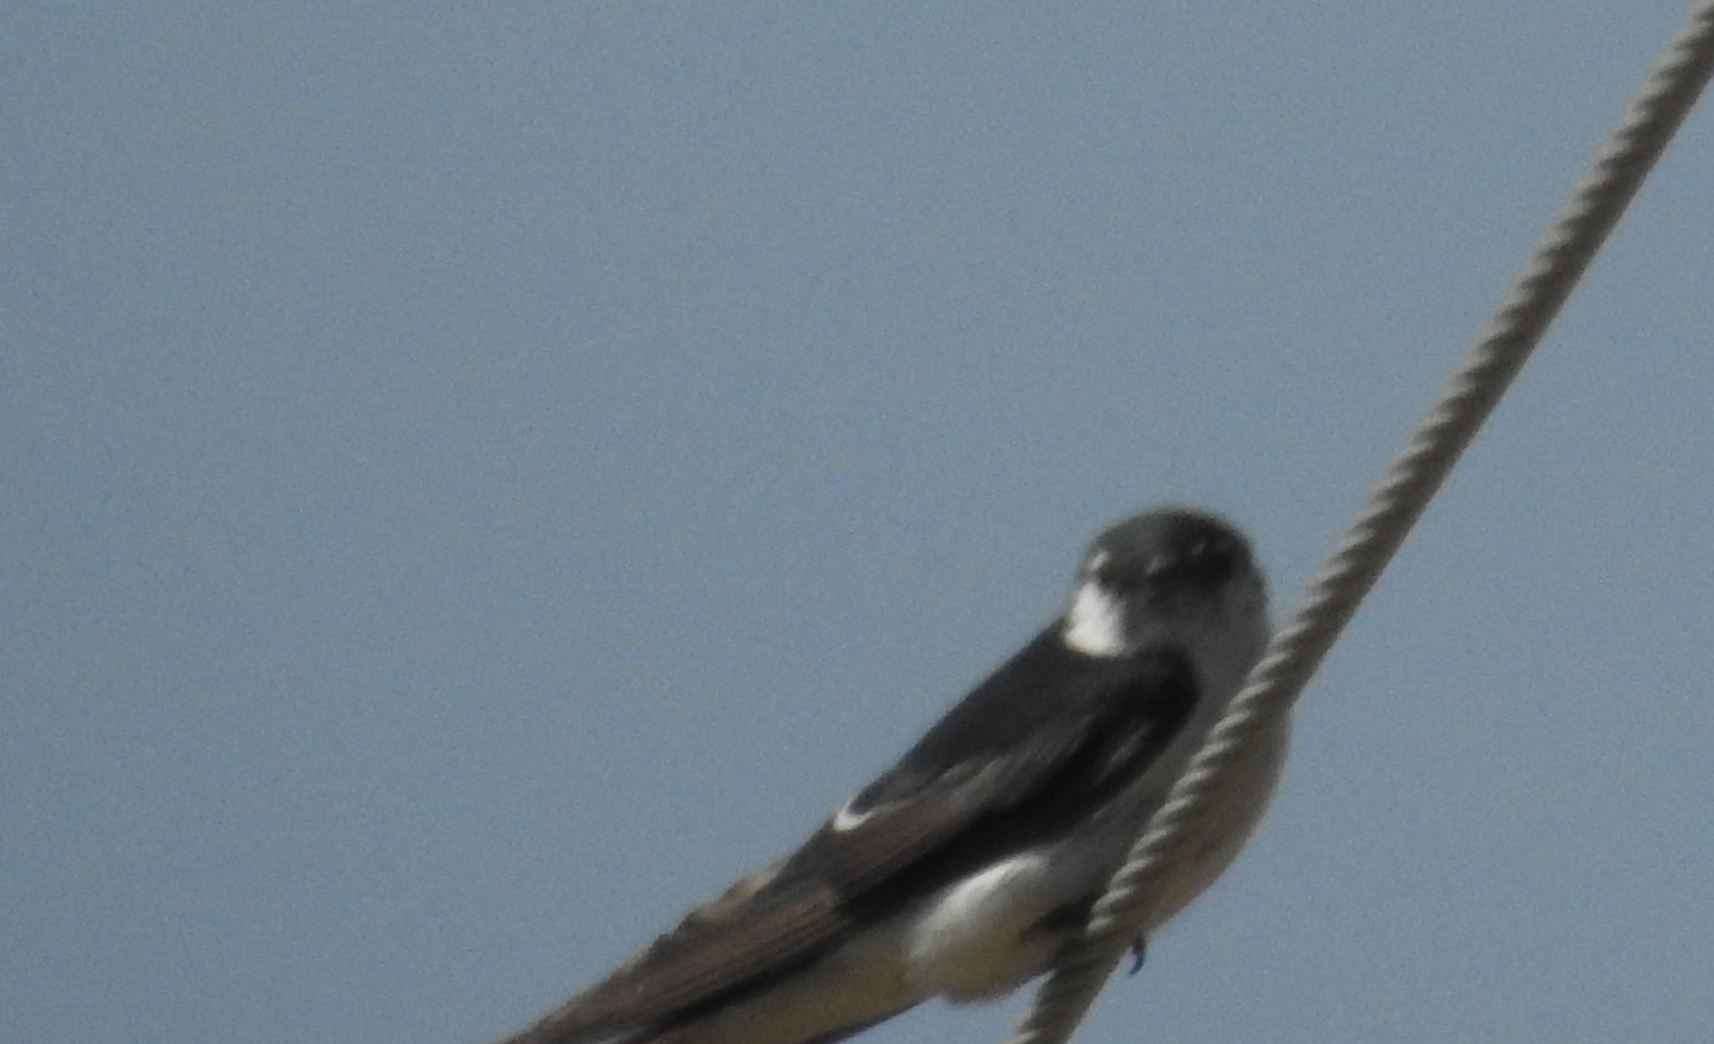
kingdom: Animalia
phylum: Chordata
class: Aves
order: Passeriformes
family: Hirundinidae
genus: Tachycineta
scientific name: Tachycineta thalassina
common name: Violet-green swallow
